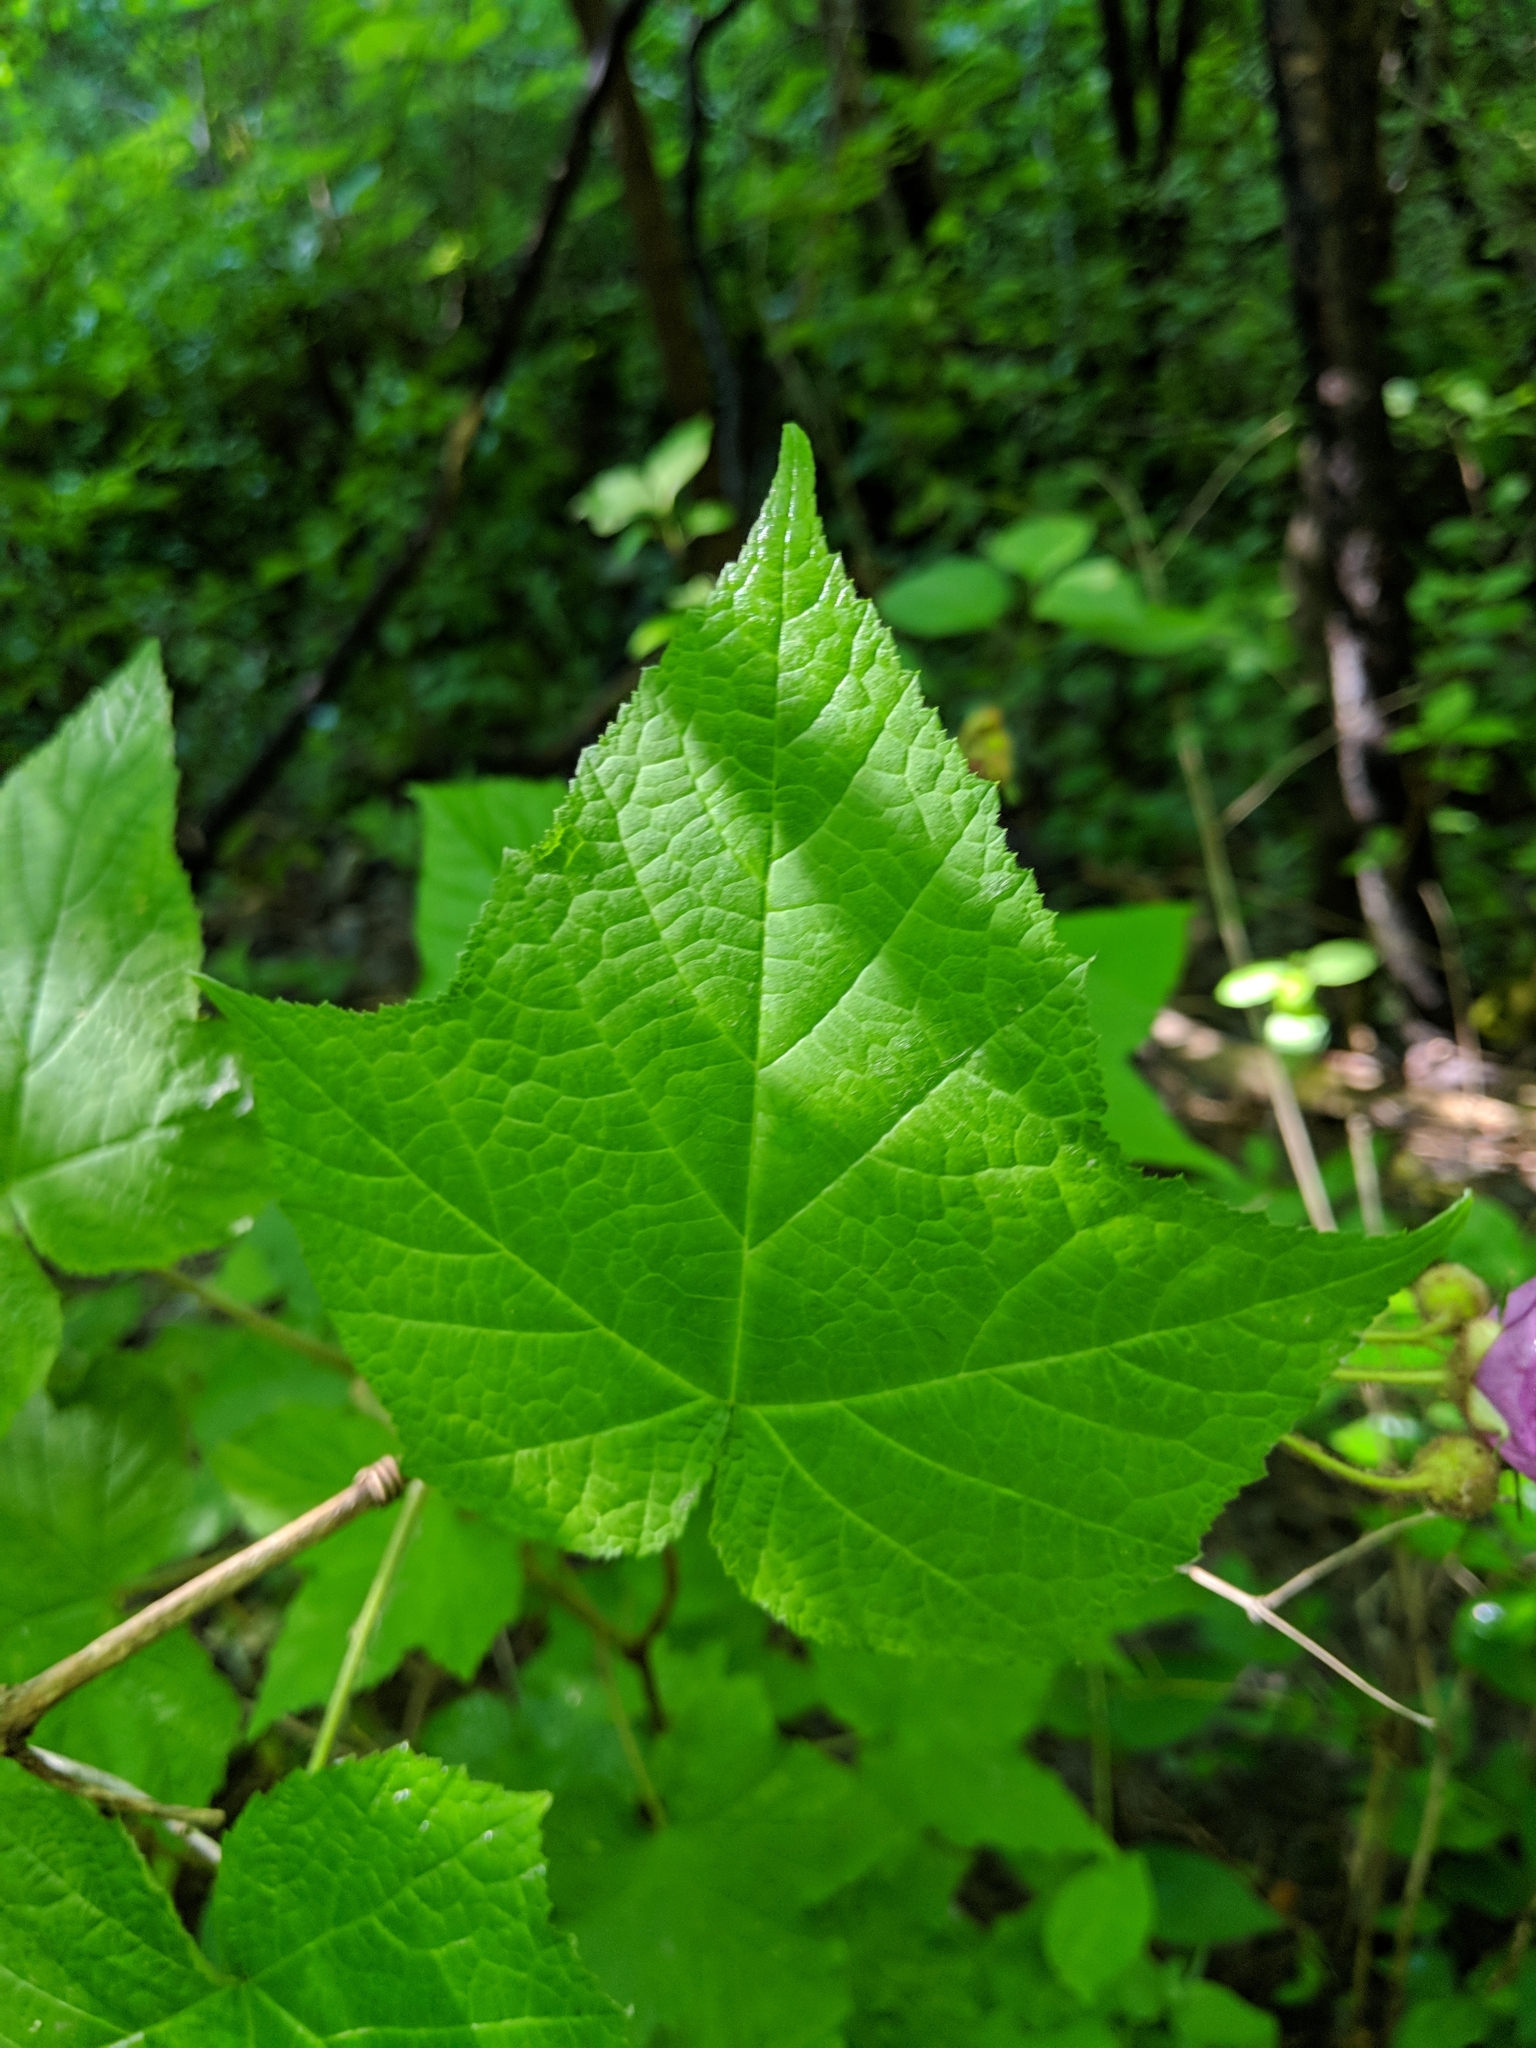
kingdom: Plantae
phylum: Tracheophyta
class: Magnoliopsida
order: Rosales
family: Rosaceae
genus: Rubus
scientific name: Rubus odoratus
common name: Purple-flowered raspberry
